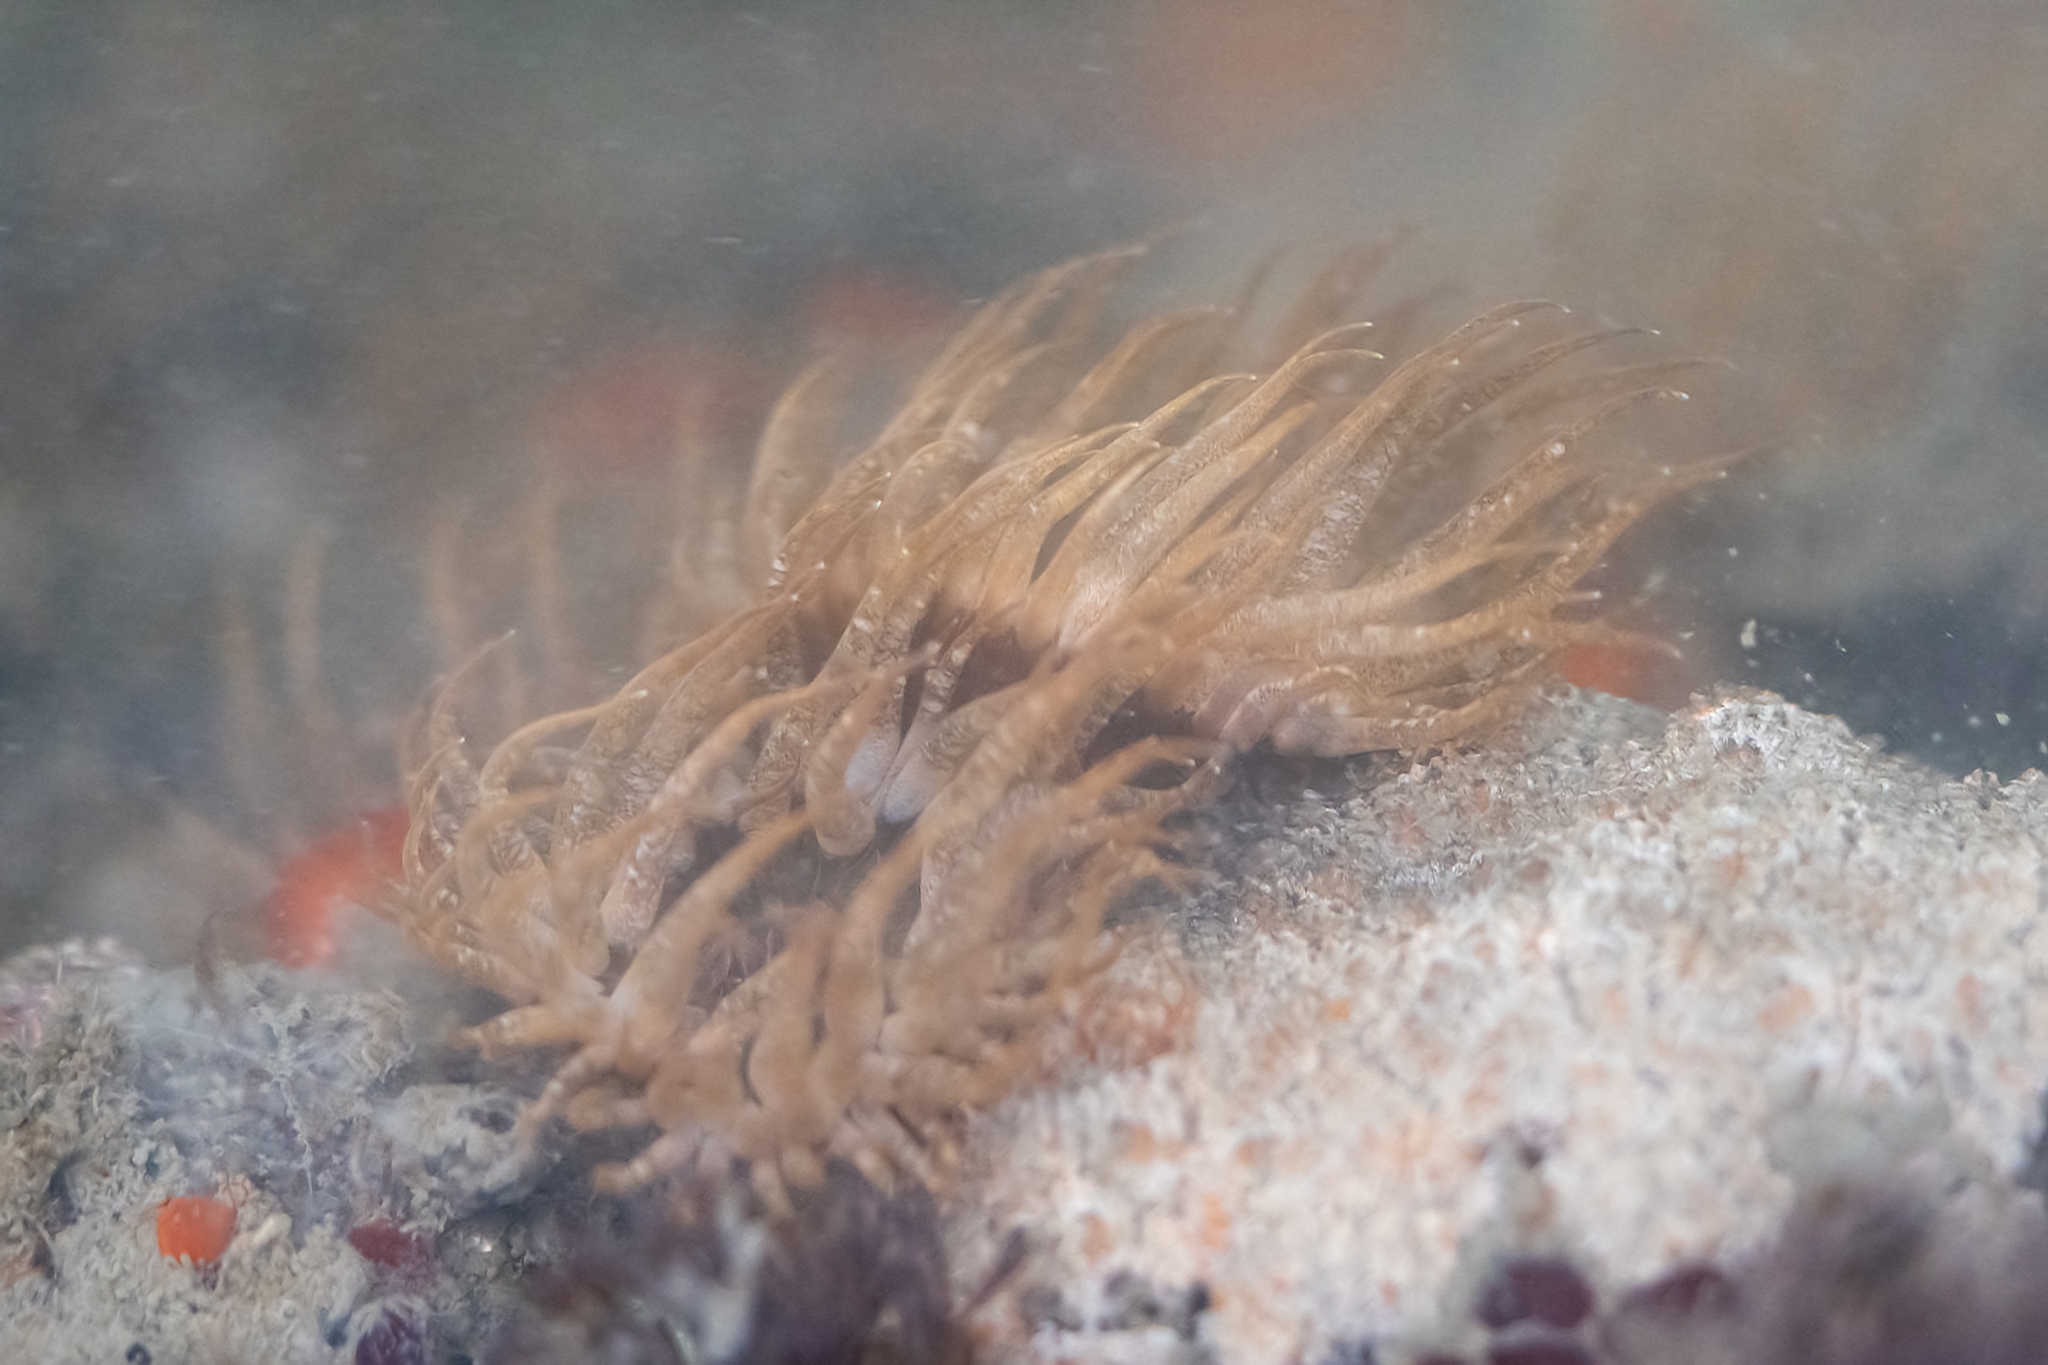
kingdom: Animalia
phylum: Cnidaria
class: Anthozoa
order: Actiniaria
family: Aiptasiidae
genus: Exaiptasia
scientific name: Exaiptasia diaphana
